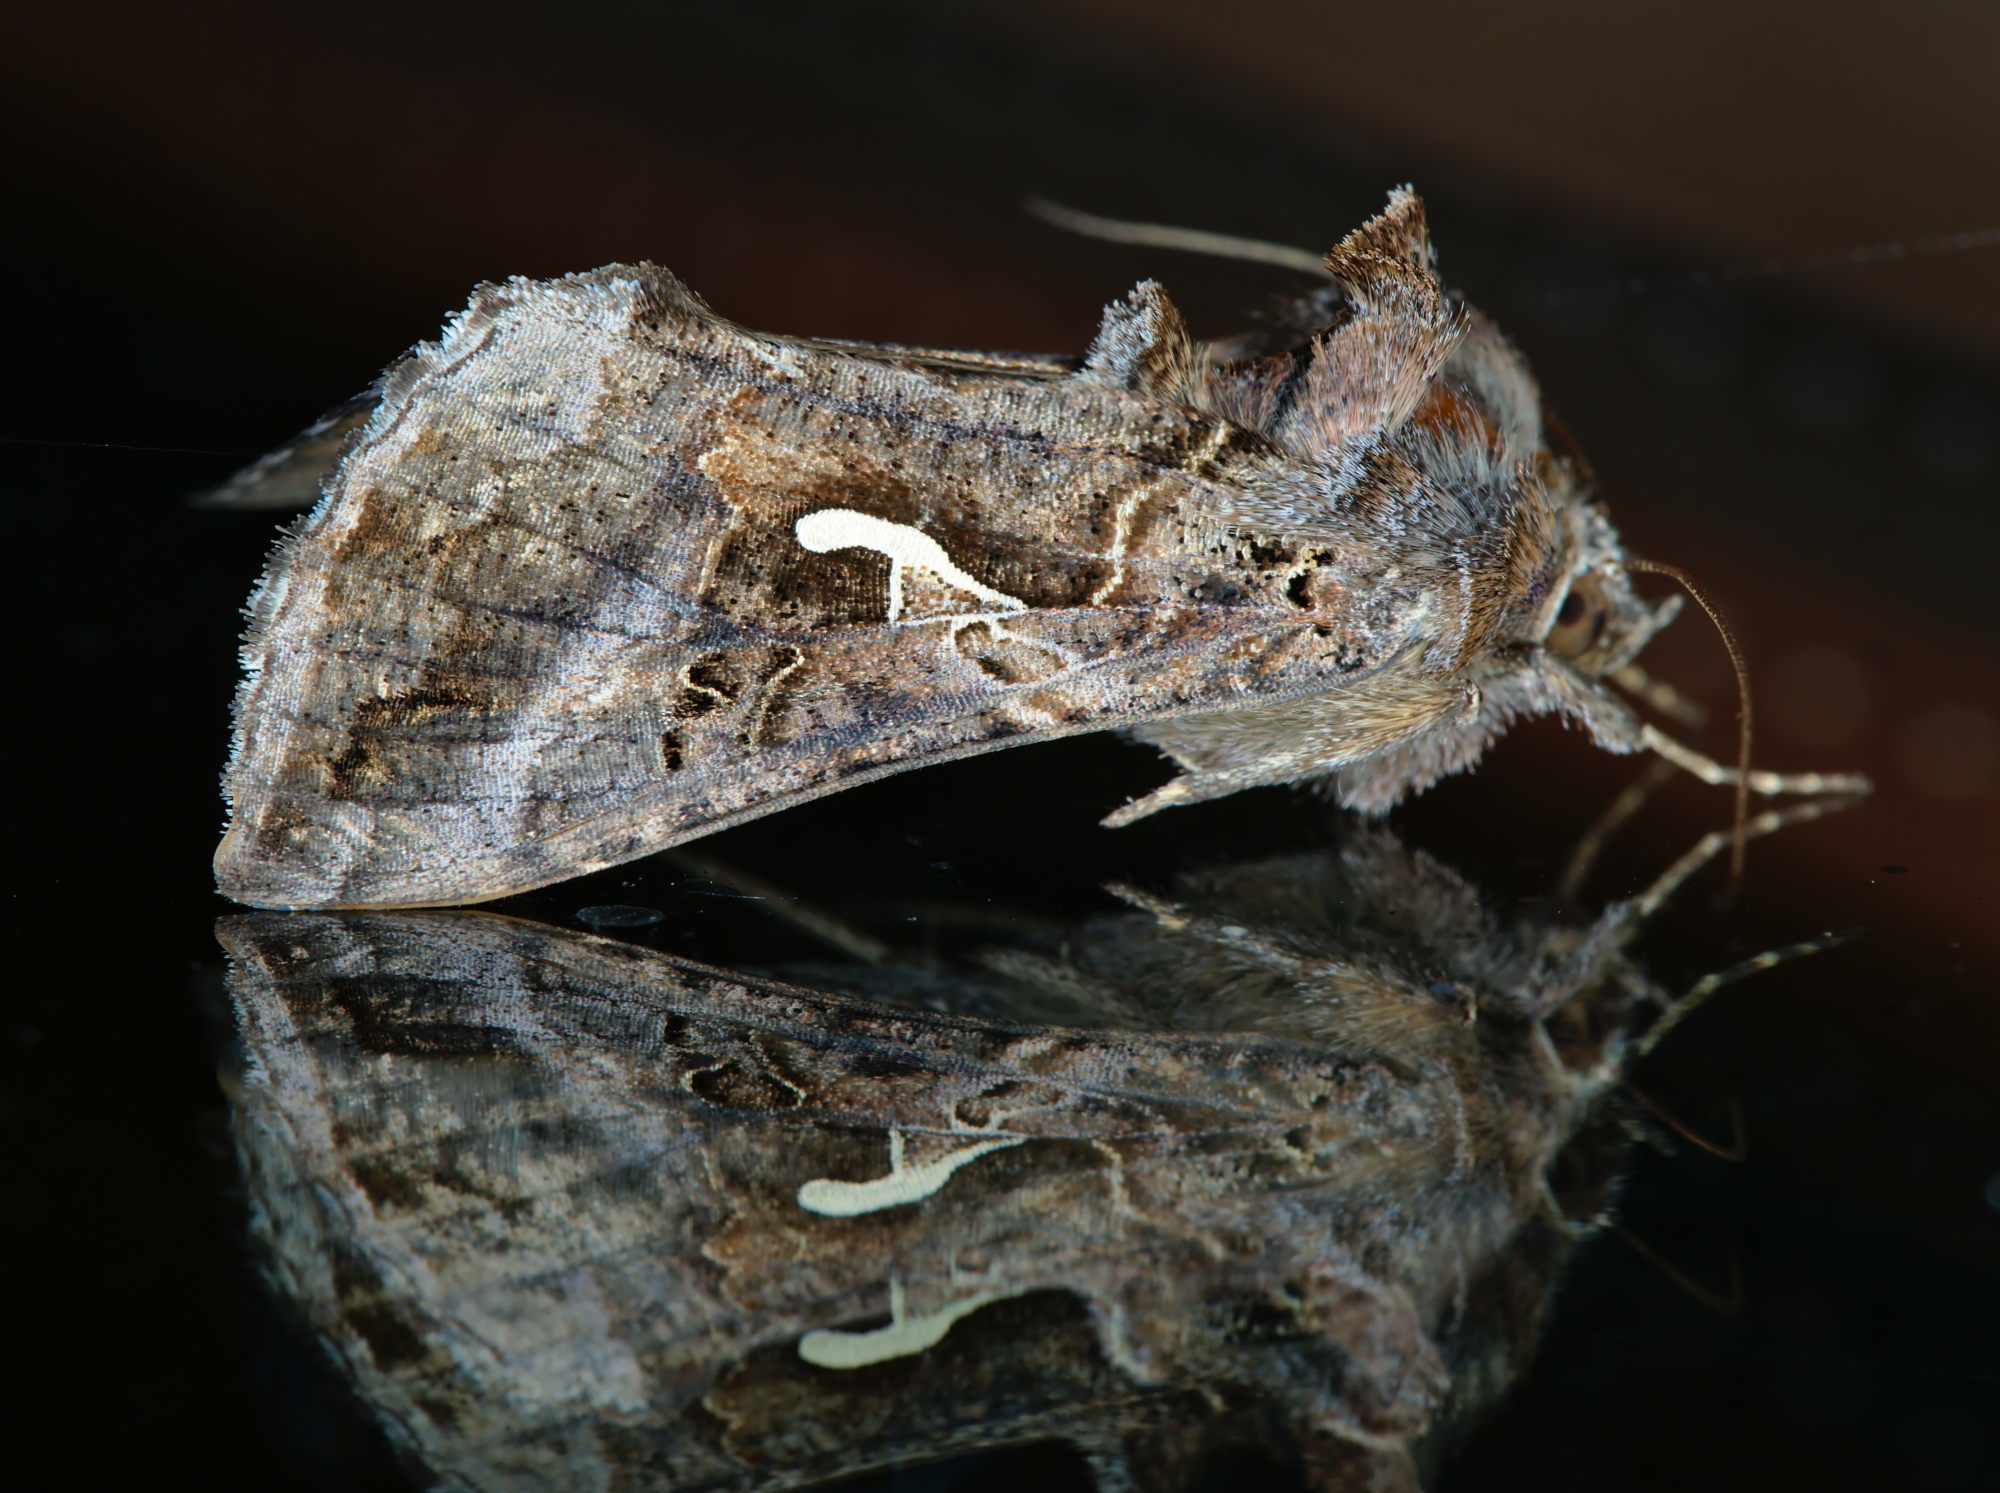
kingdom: Animalia
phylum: Arthropoda
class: Insecta
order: Lepidoptera
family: Noctuidae
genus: Autographa
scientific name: Autographa gamma
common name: Silver y
